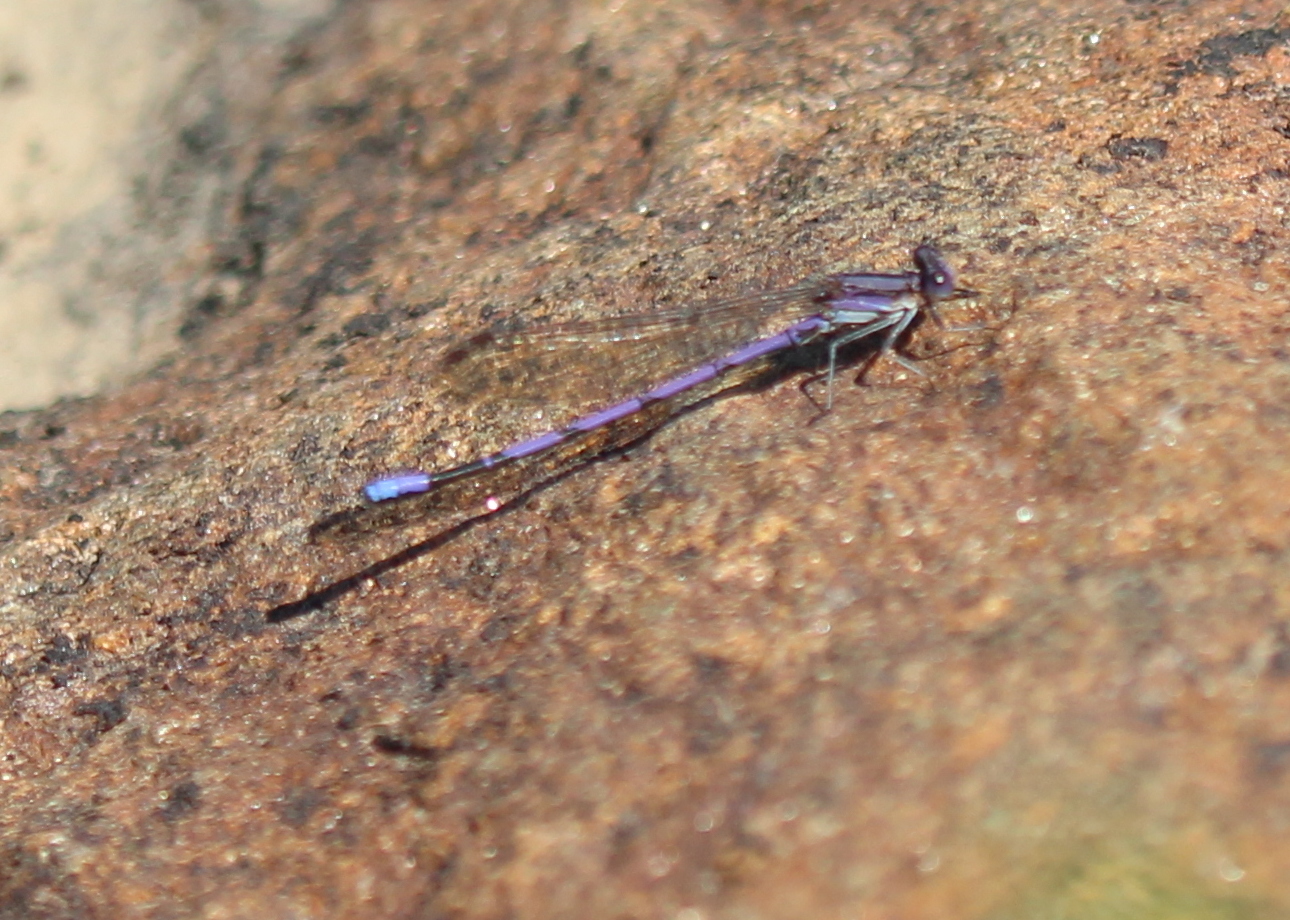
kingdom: Animalia
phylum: Arthropoda
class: Insecta
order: Odonata
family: Coenagrionidae
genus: Argia
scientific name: Argia fumipennis
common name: Variable dancer
